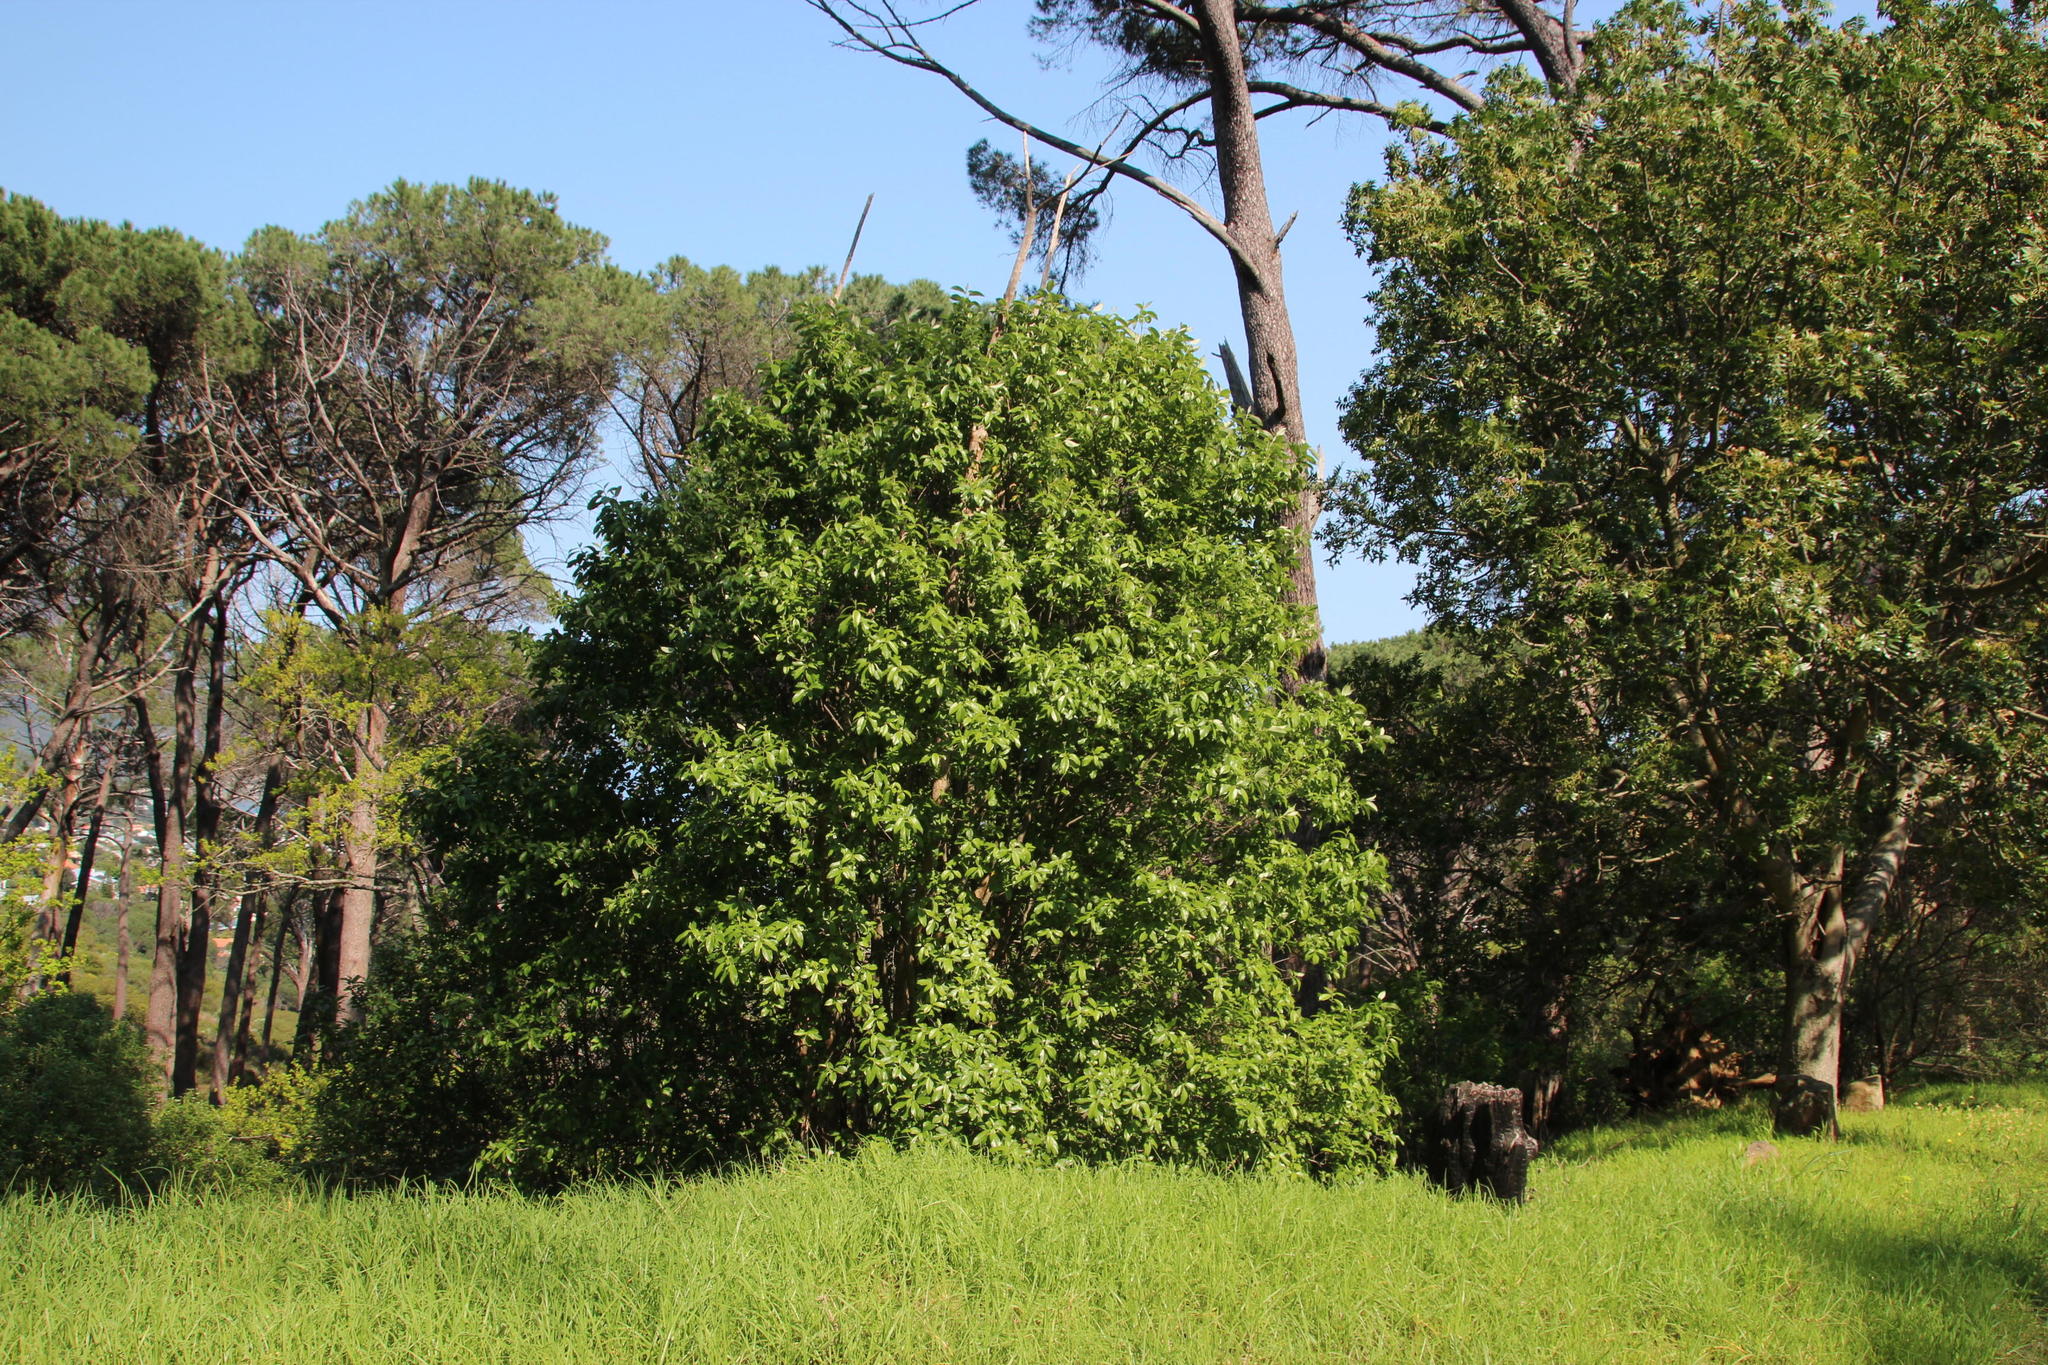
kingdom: Plantae
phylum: Tracheophyta
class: Magnoliopsida
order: Malpighiales
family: Achariaceae
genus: Kiggelaria
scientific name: Kiggelaria africana
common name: Wild peach
